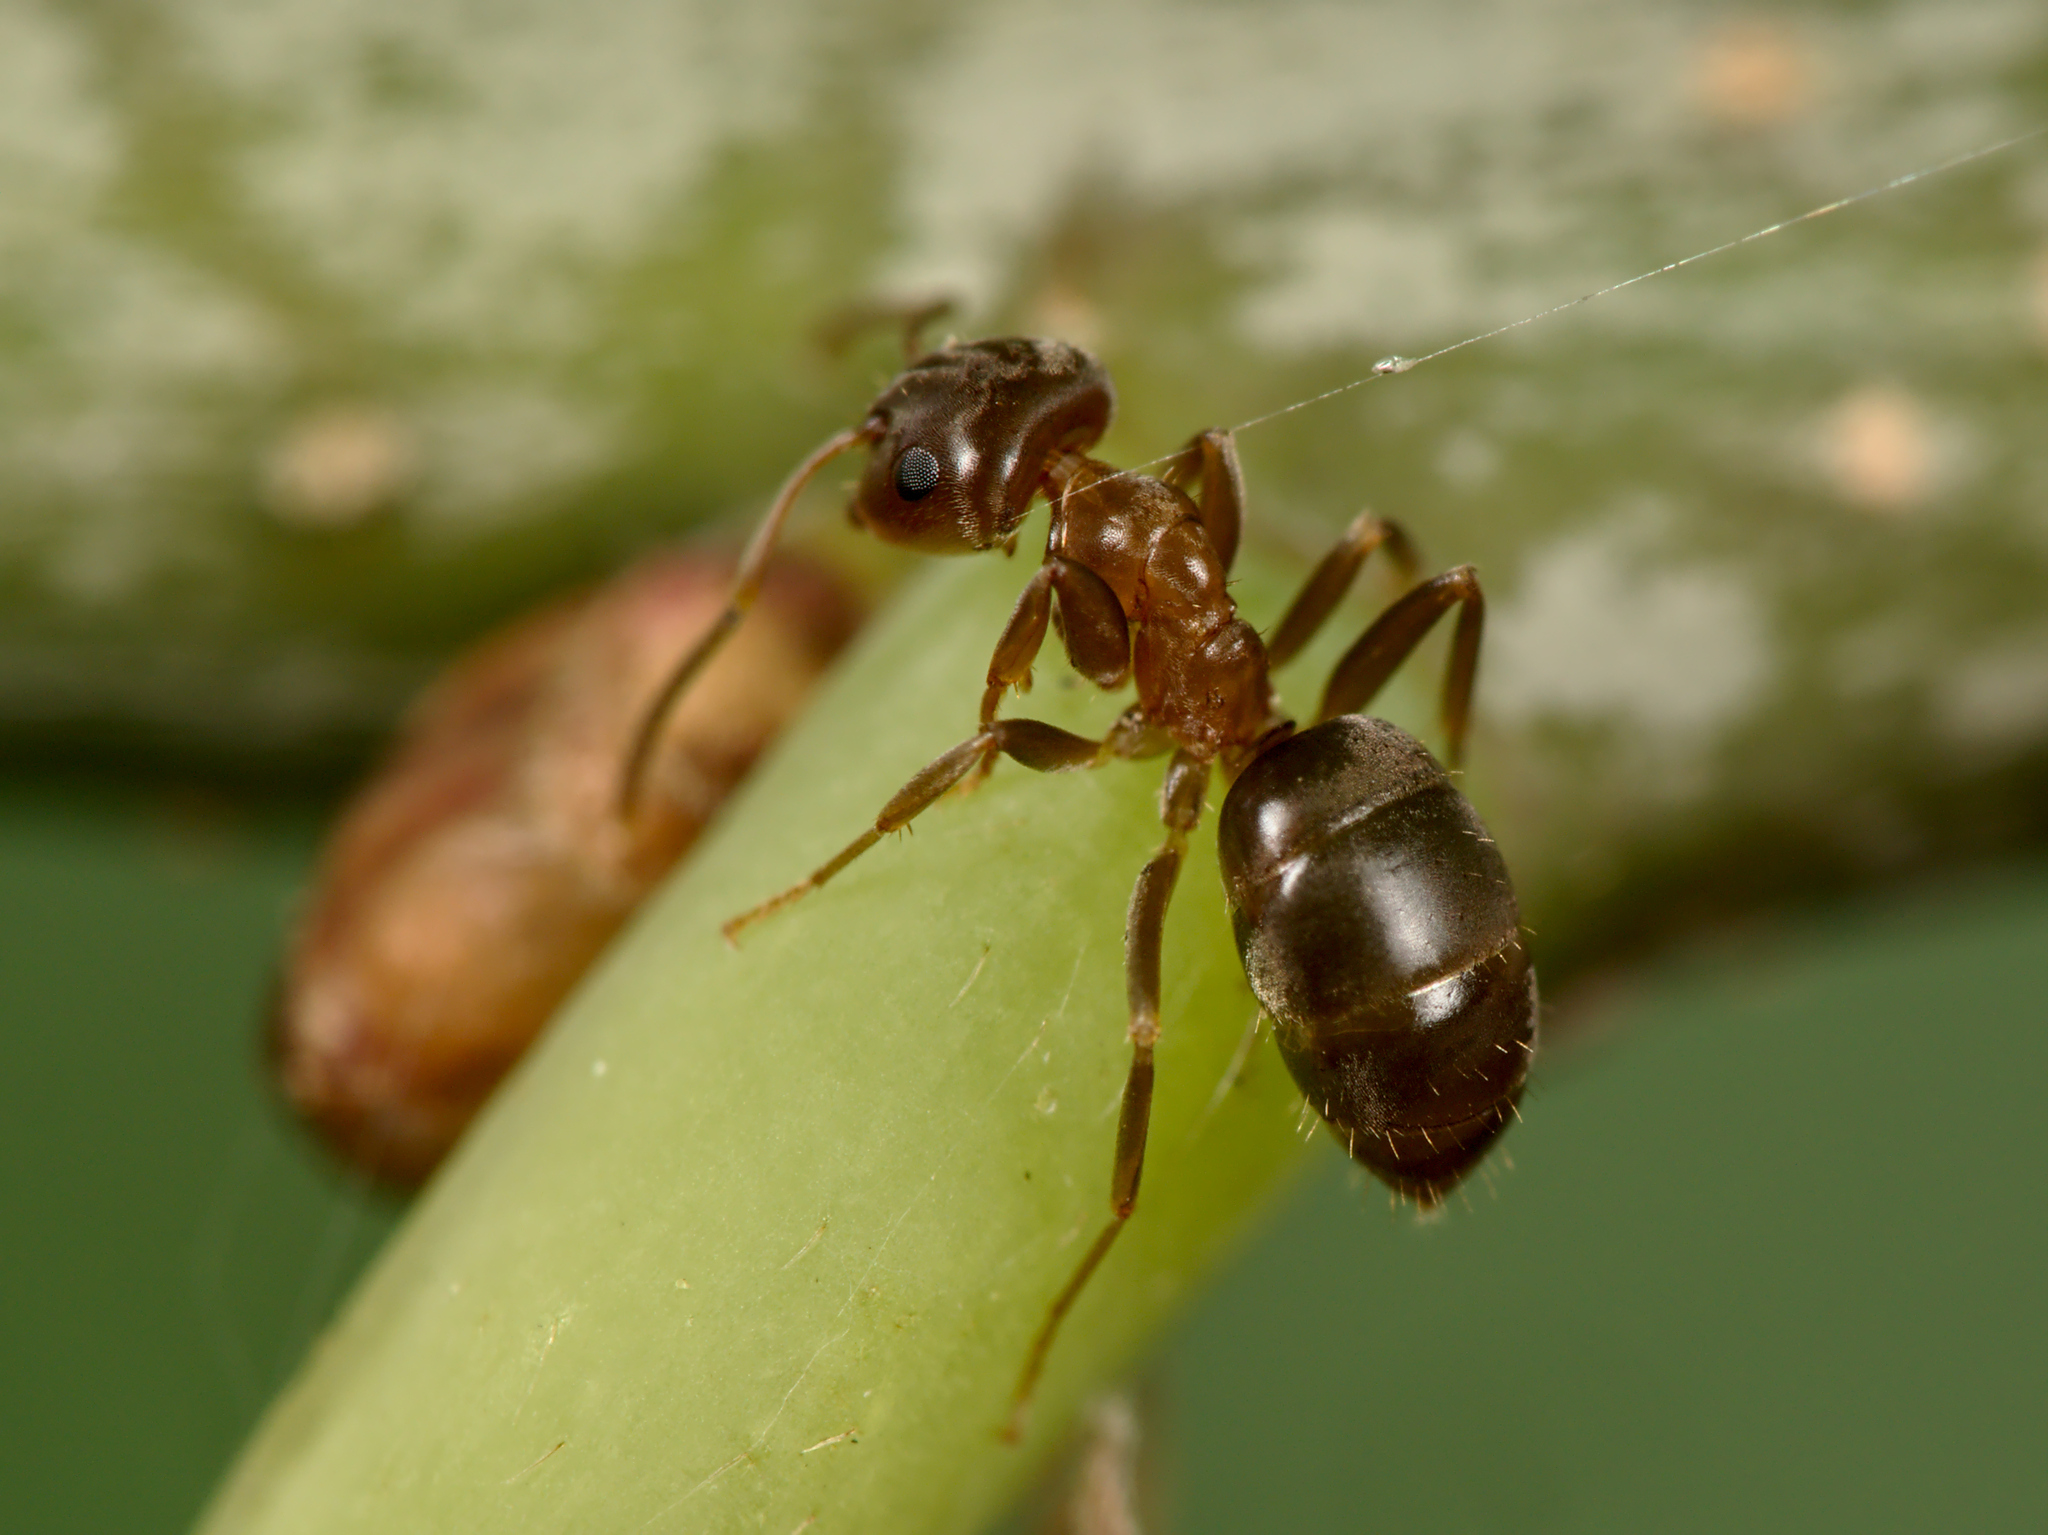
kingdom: Animalia
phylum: Arthropoda
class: Insecta
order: Hymenoptera
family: Formicidae
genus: Lasius
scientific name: Lasius brunneus
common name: Brown ant
